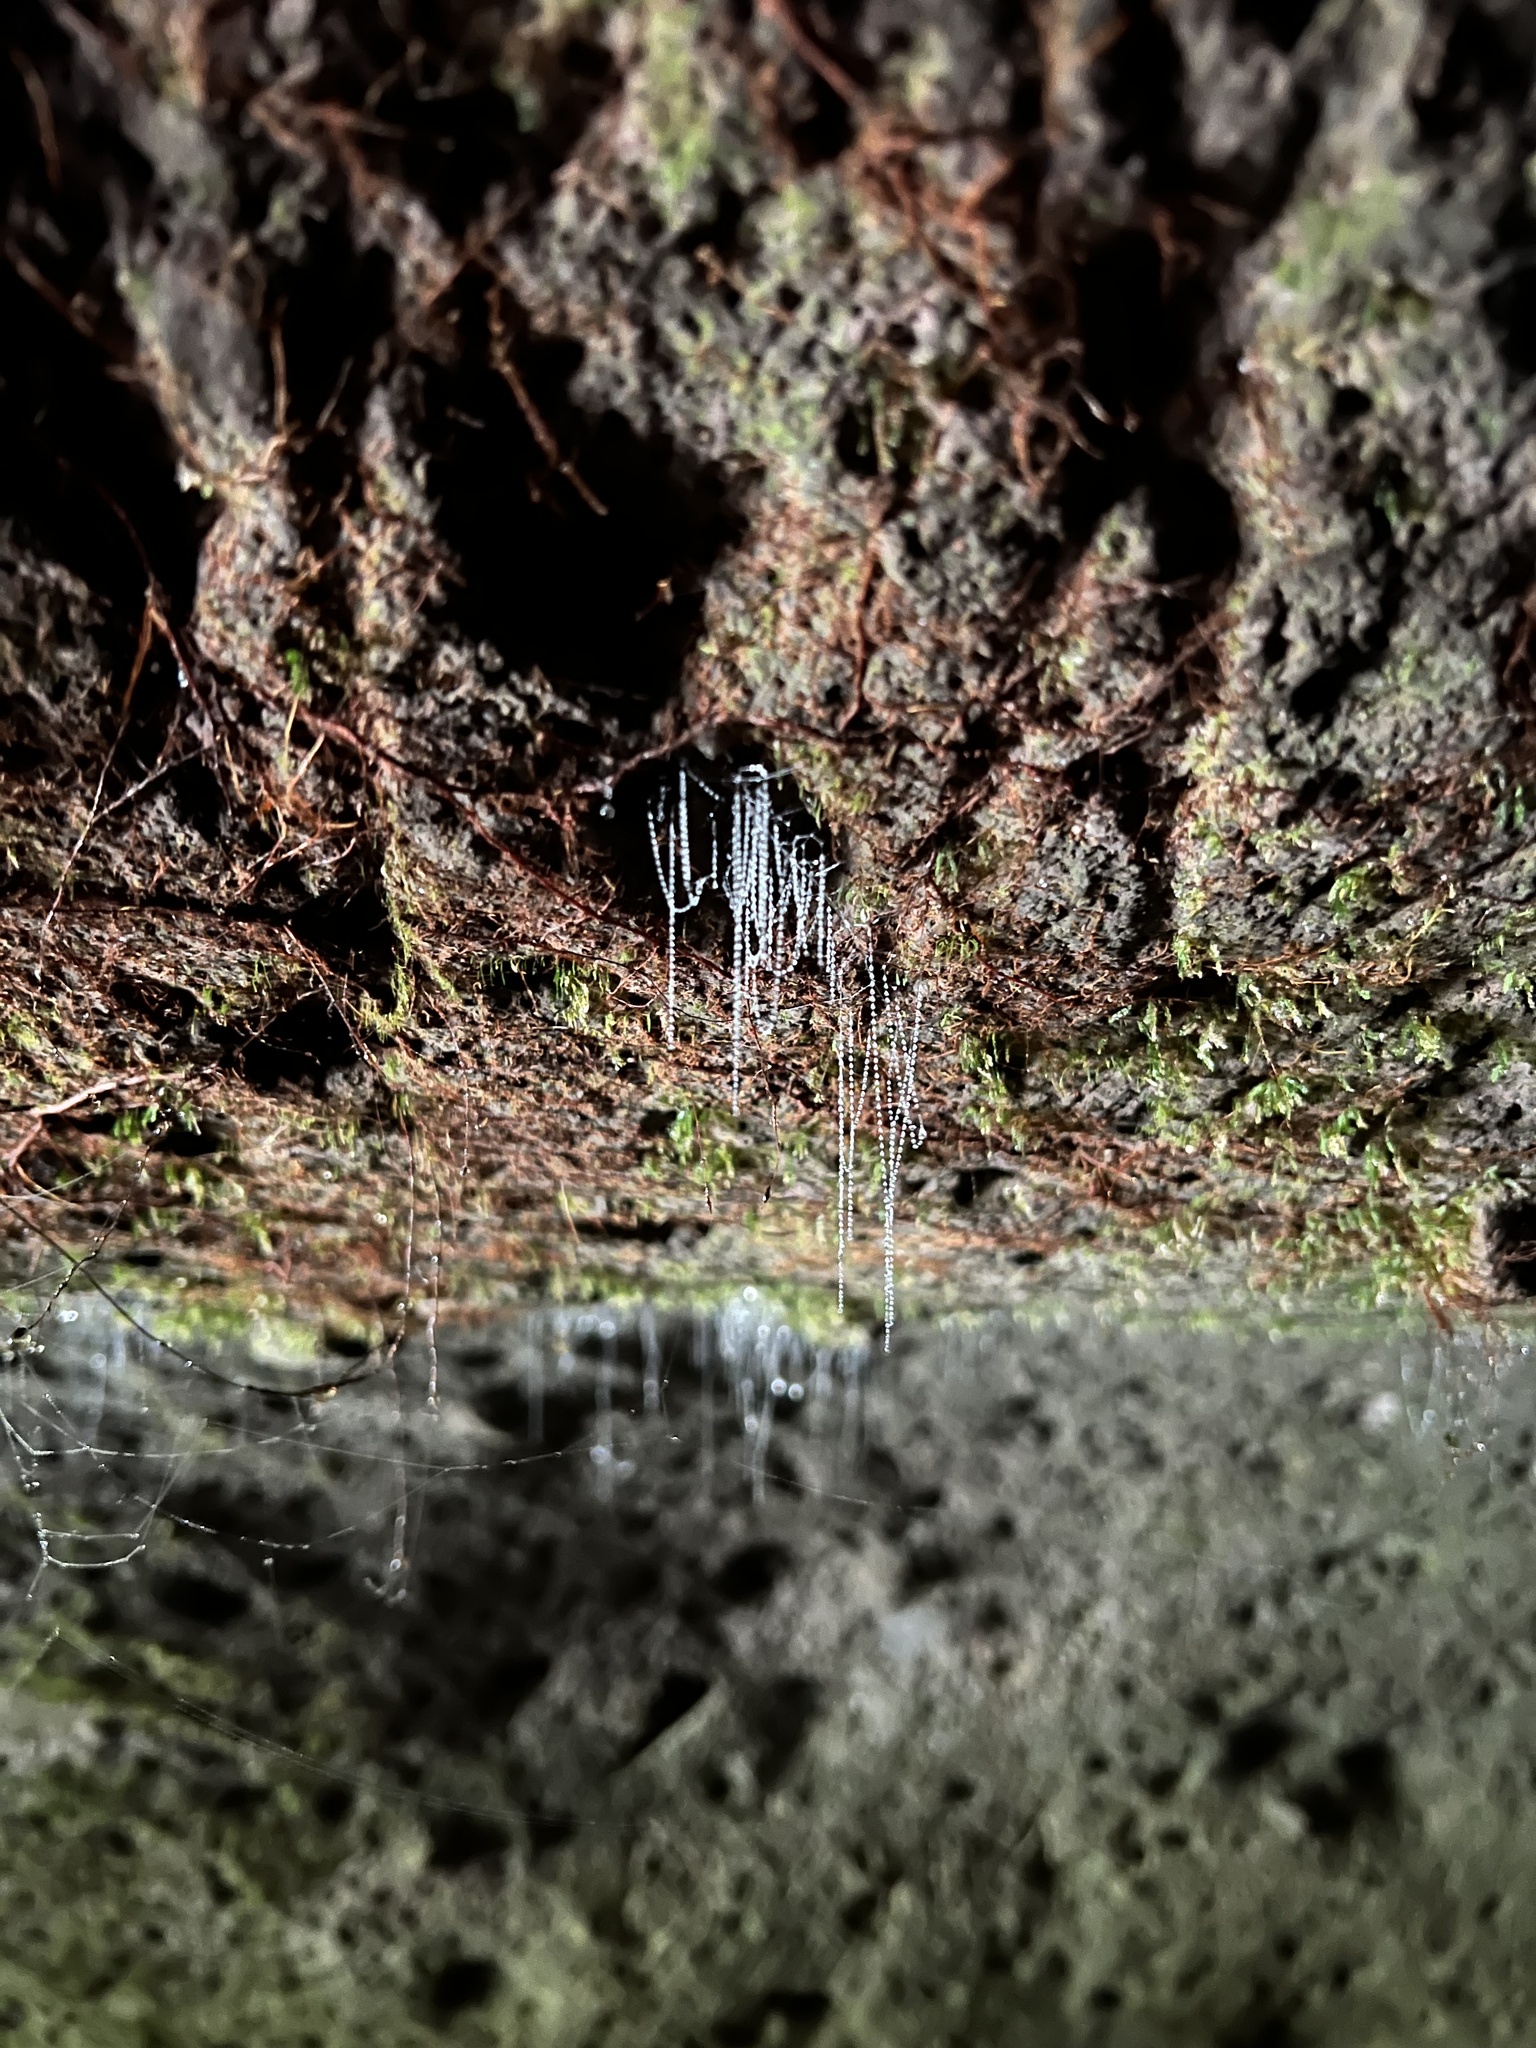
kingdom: Animalia
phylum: Arthropoda
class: Insecta
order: Diptera
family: Keroplatidae
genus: Arachnocampa
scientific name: Arachnocampa luminosa
